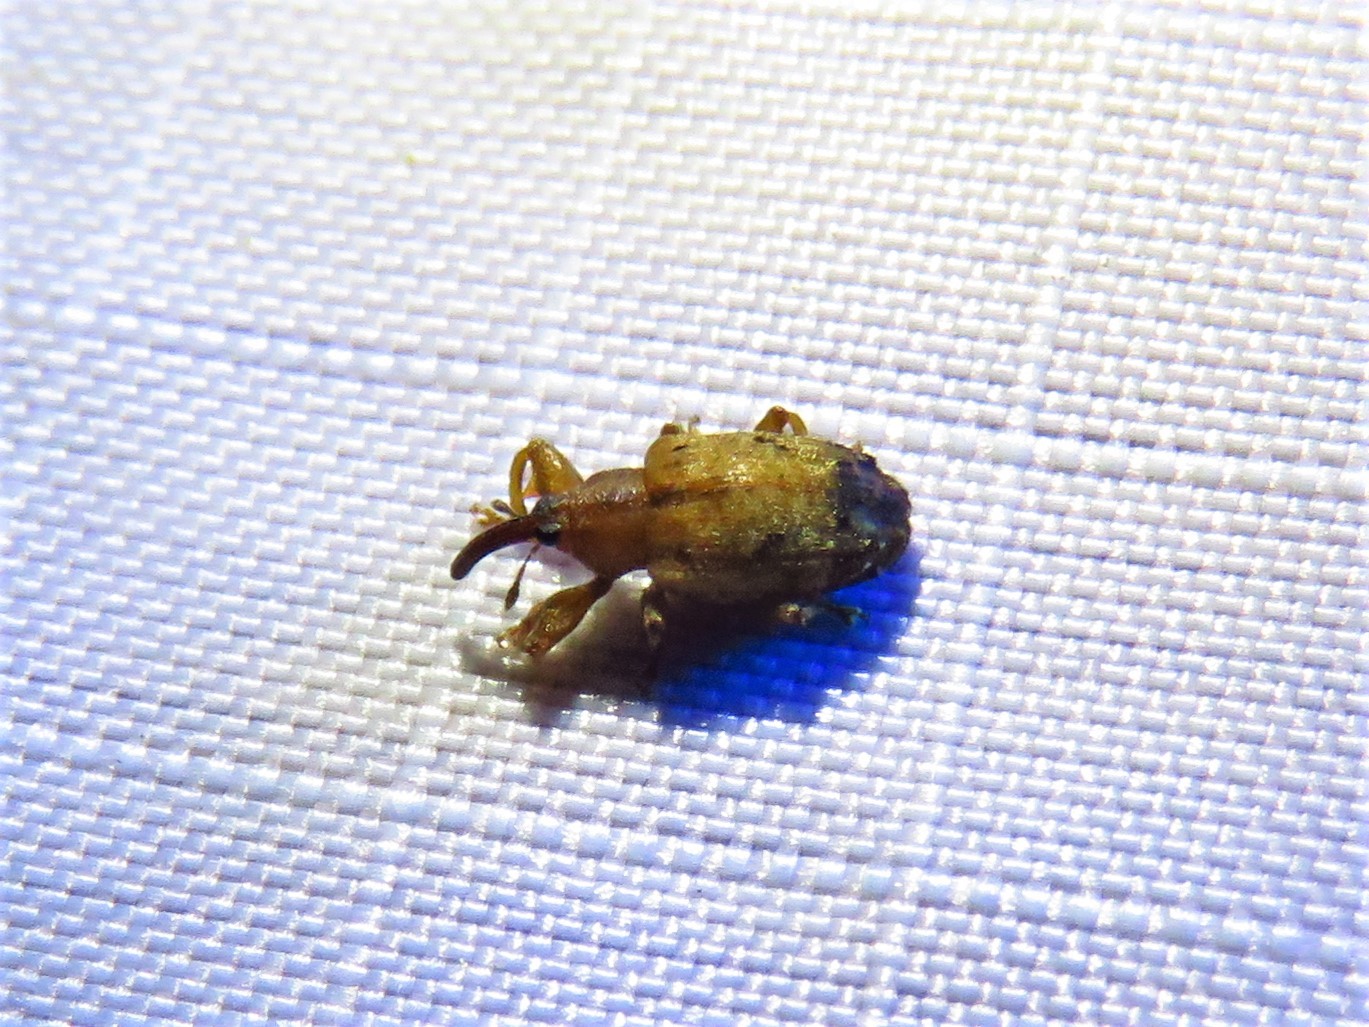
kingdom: Animalia
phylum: Arthropoda
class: Insecta
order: Coleoptera
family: Curculionidae
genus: Ochyromera
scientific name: Ochyromera ligustri
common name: Weevil
